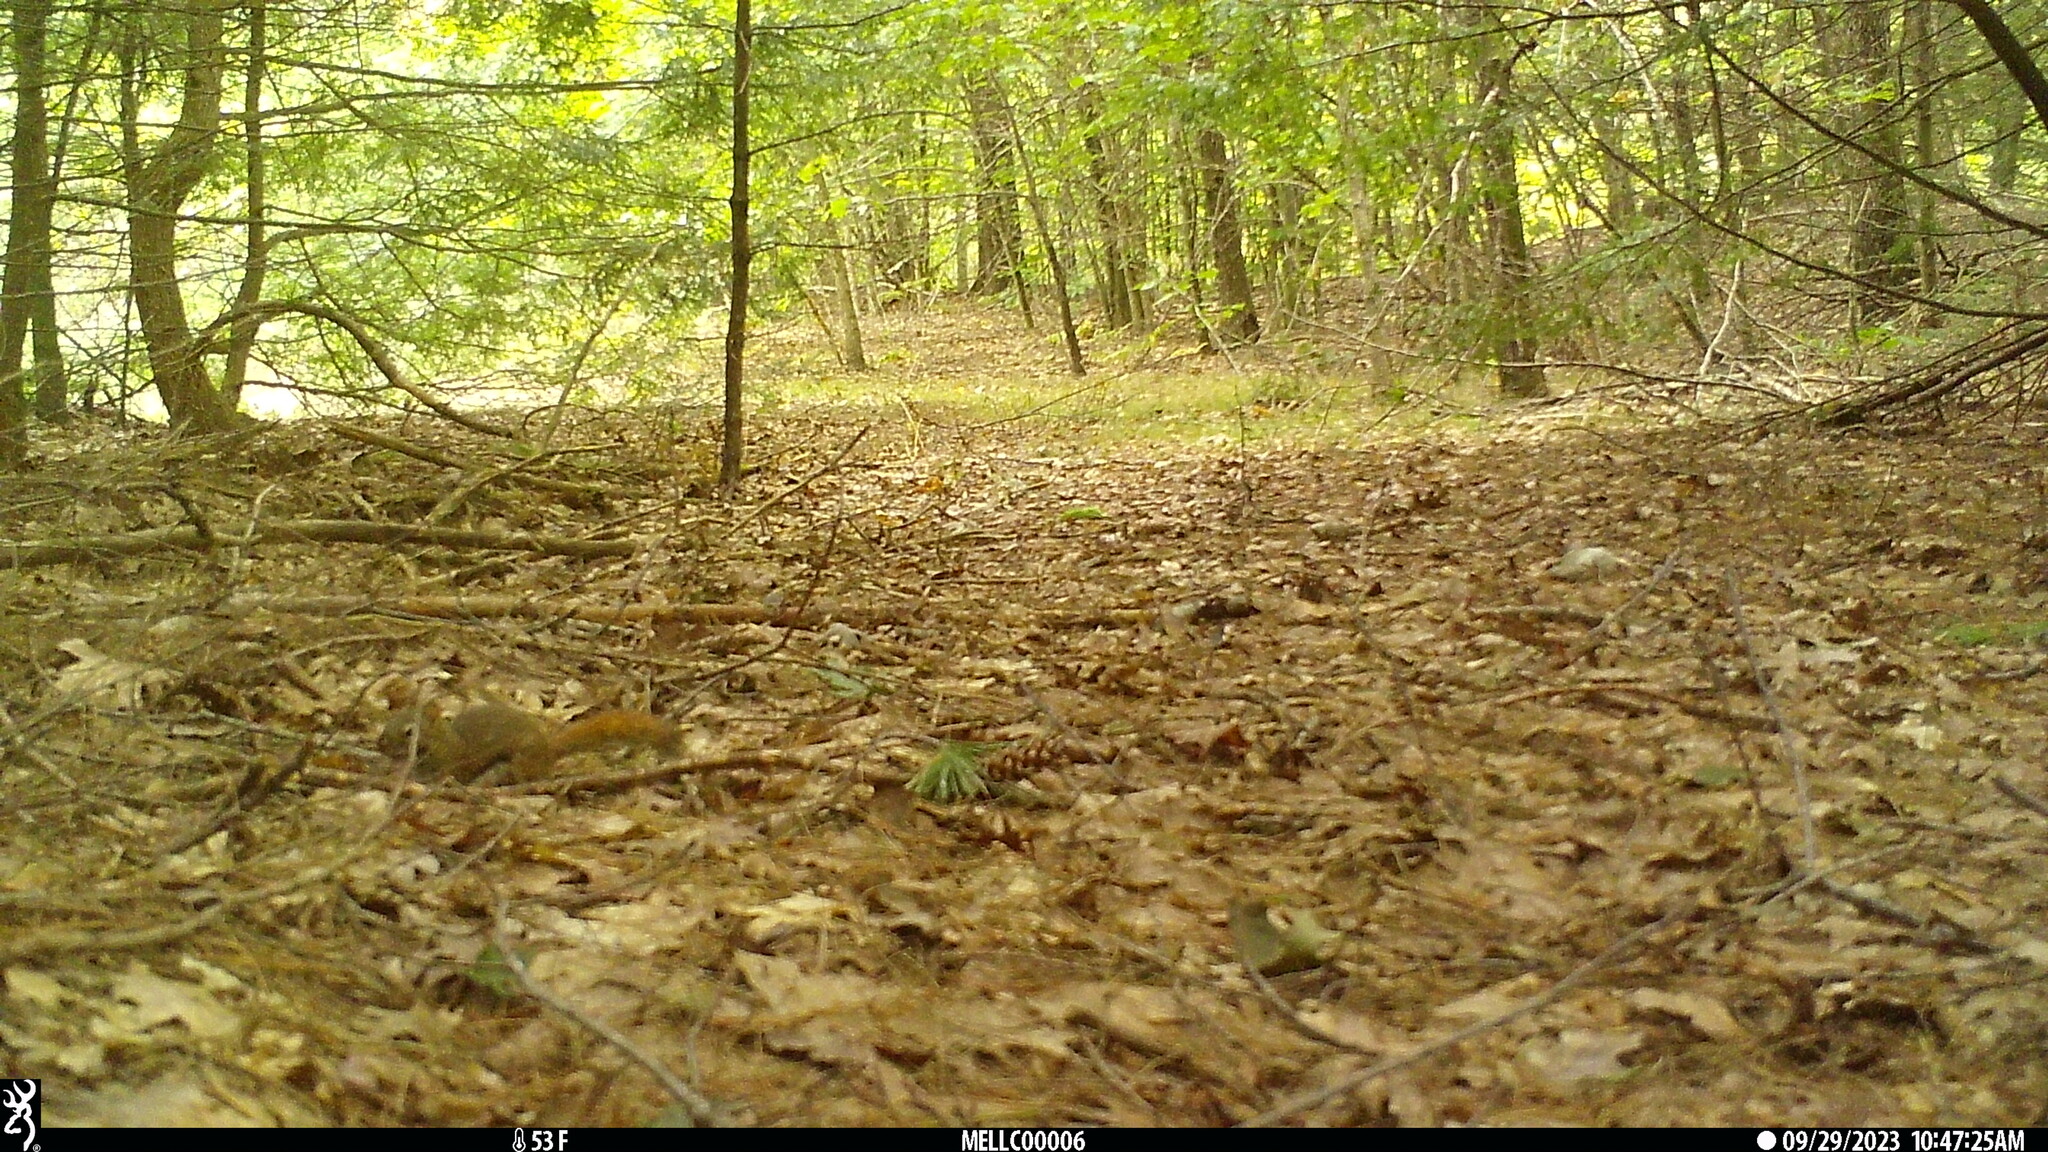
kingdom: Animalia
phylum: Chordata
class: Mammalia
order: Rodentia
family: Sciuridae
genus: Tamiasciurus
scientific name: Tamiasciurus hudsonicus
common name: Red squirrel
